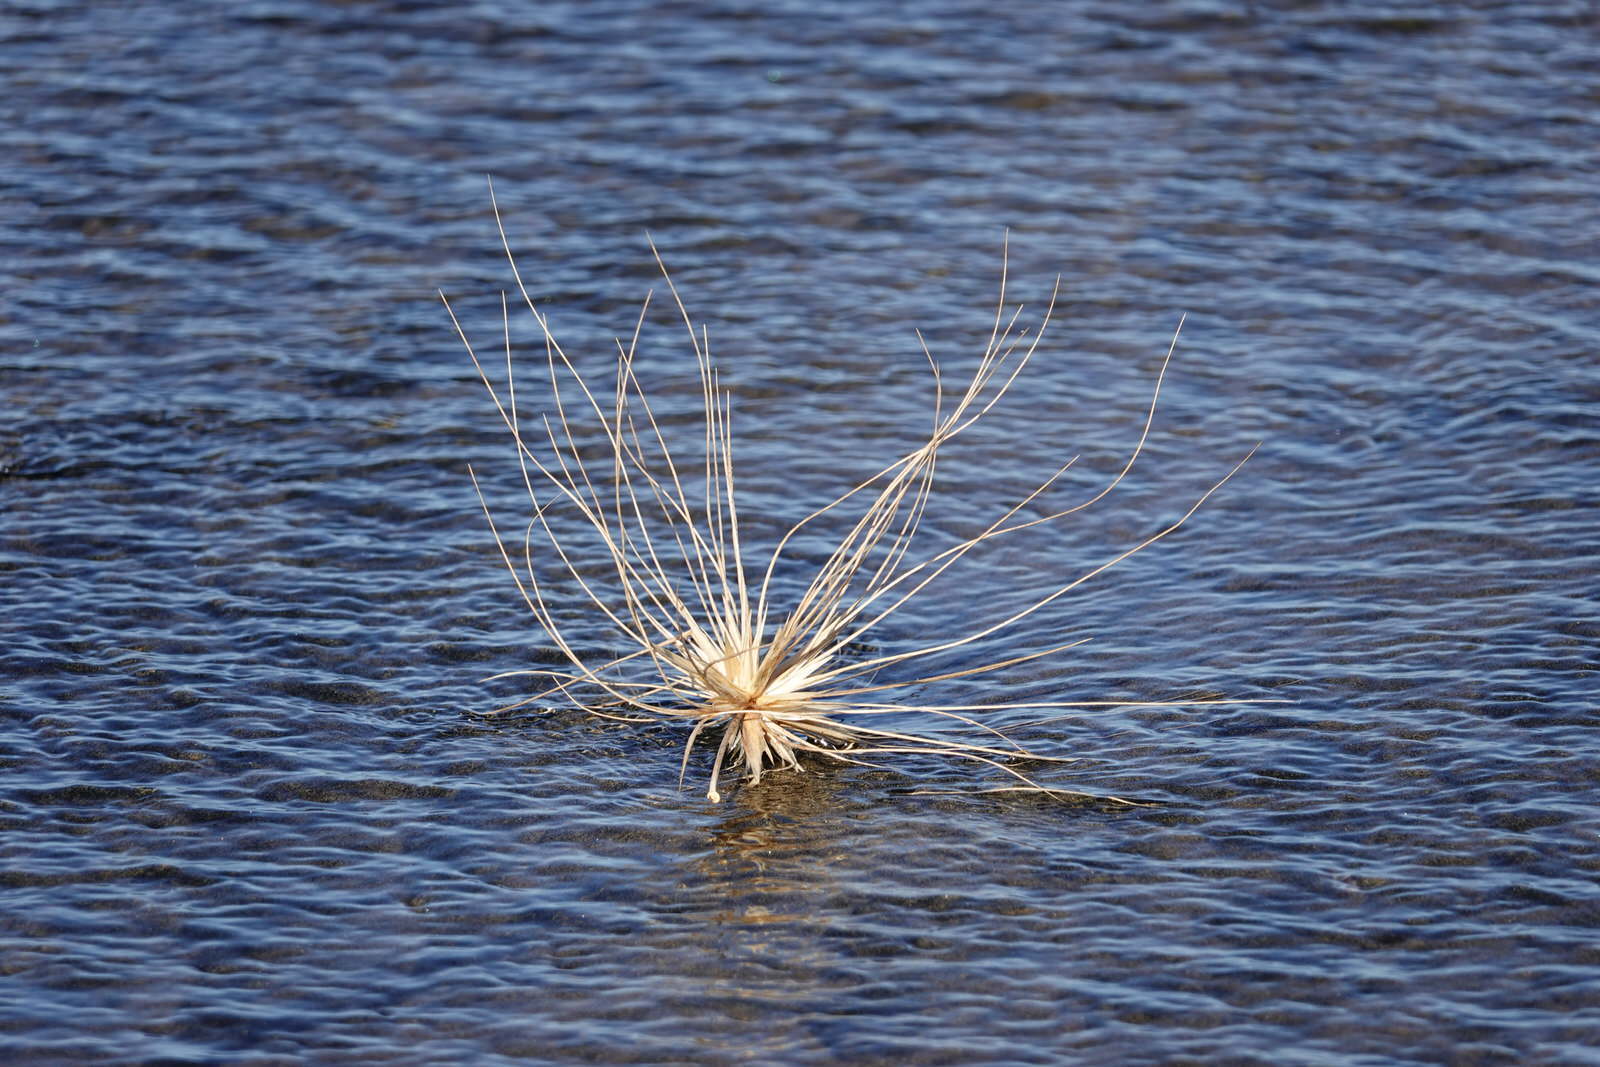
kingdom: Plantae
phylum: Tracheophyta
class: Liliopsida
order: Poales
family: Poaceae
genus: Spinifex
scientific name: Spinifex sericeus
